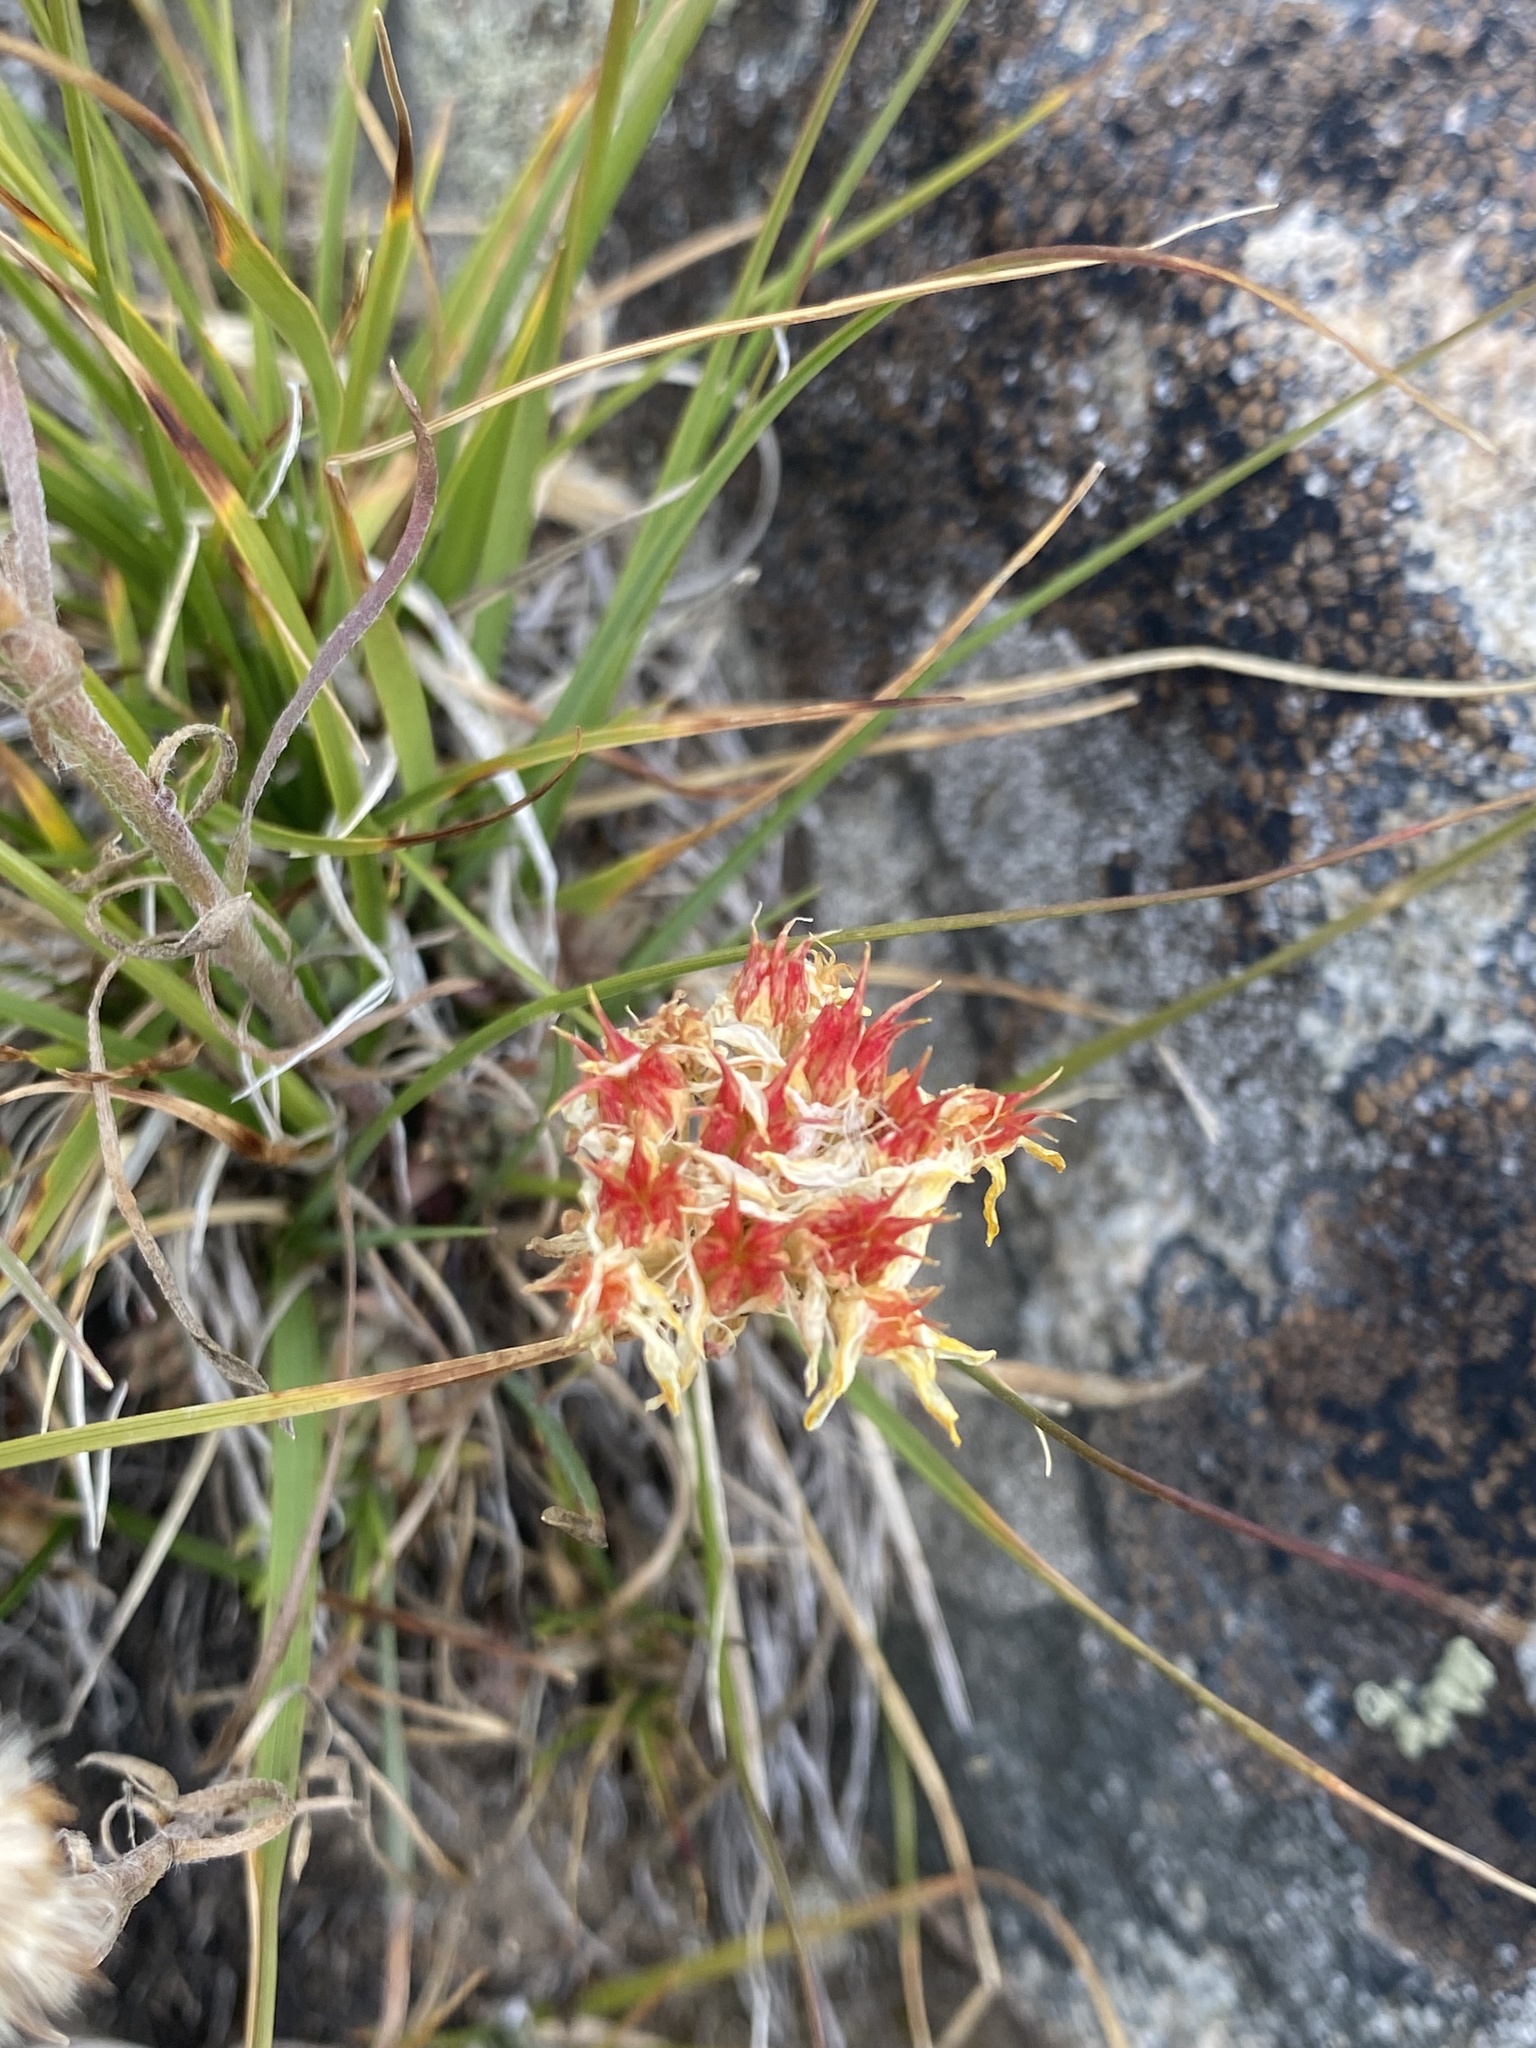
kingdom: Plantae
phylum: Tracheophyta
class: Magnoliopsida
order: Saxifragales
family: Crassulaceae
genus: Sedum
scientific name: Sedum lanceolatum
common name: Common stonecrop
